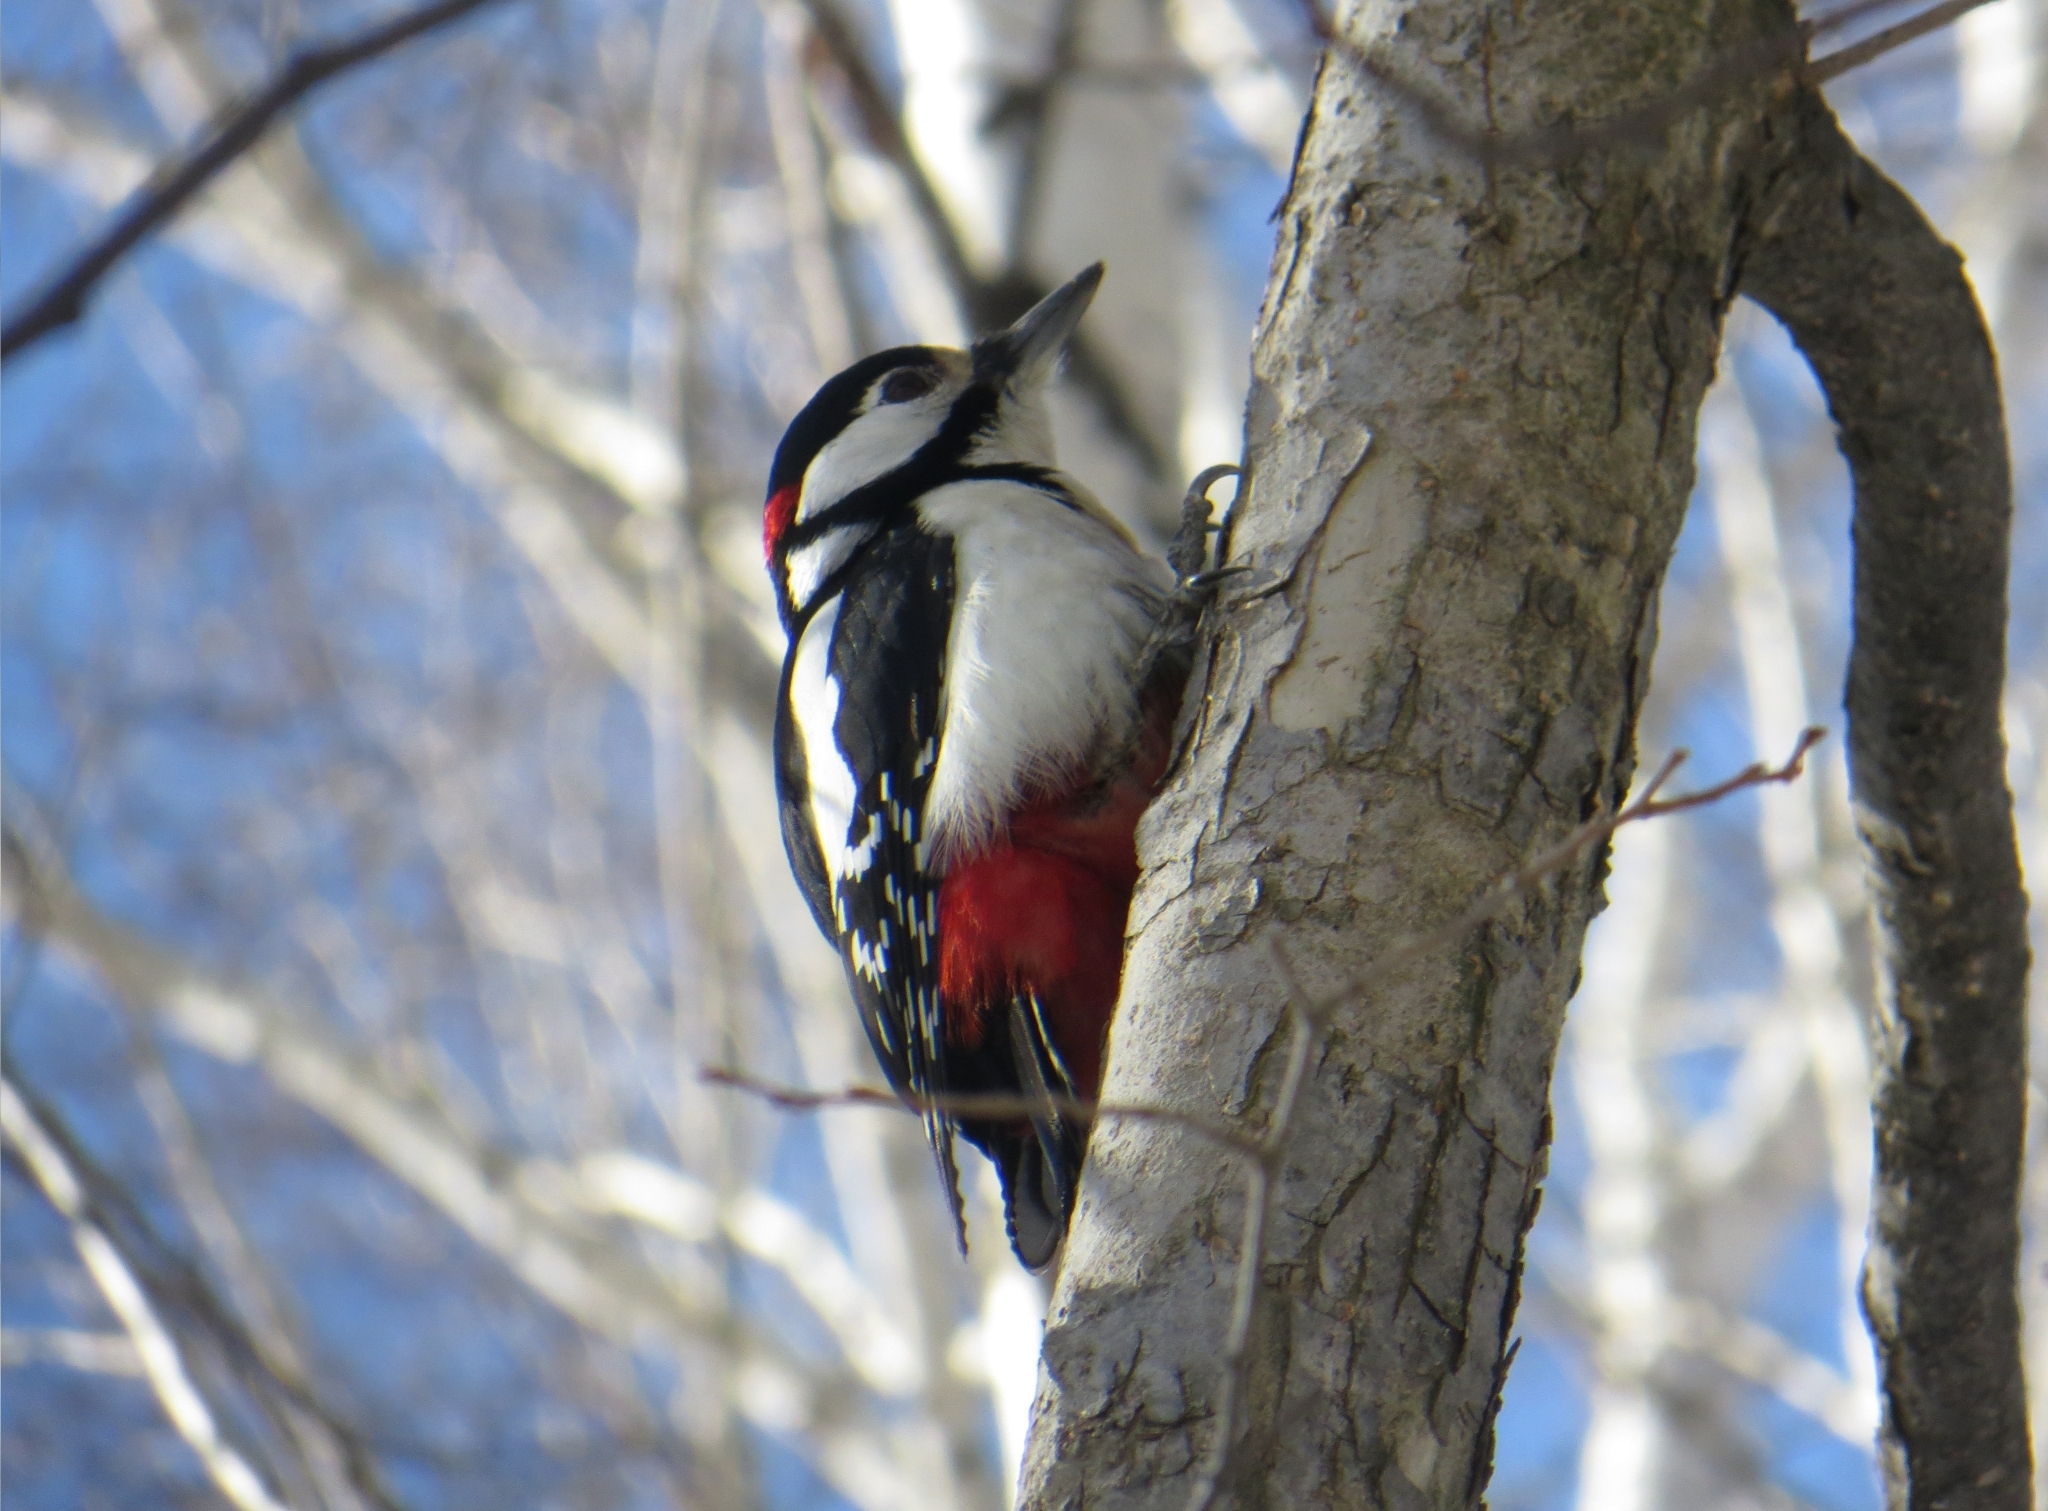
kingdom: Animalia
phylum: Chordata
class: Aves
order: Piciformes
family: Picidae
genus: Dendrocopos
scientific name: Dendrocopos major
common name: Great spotted woodpecker
